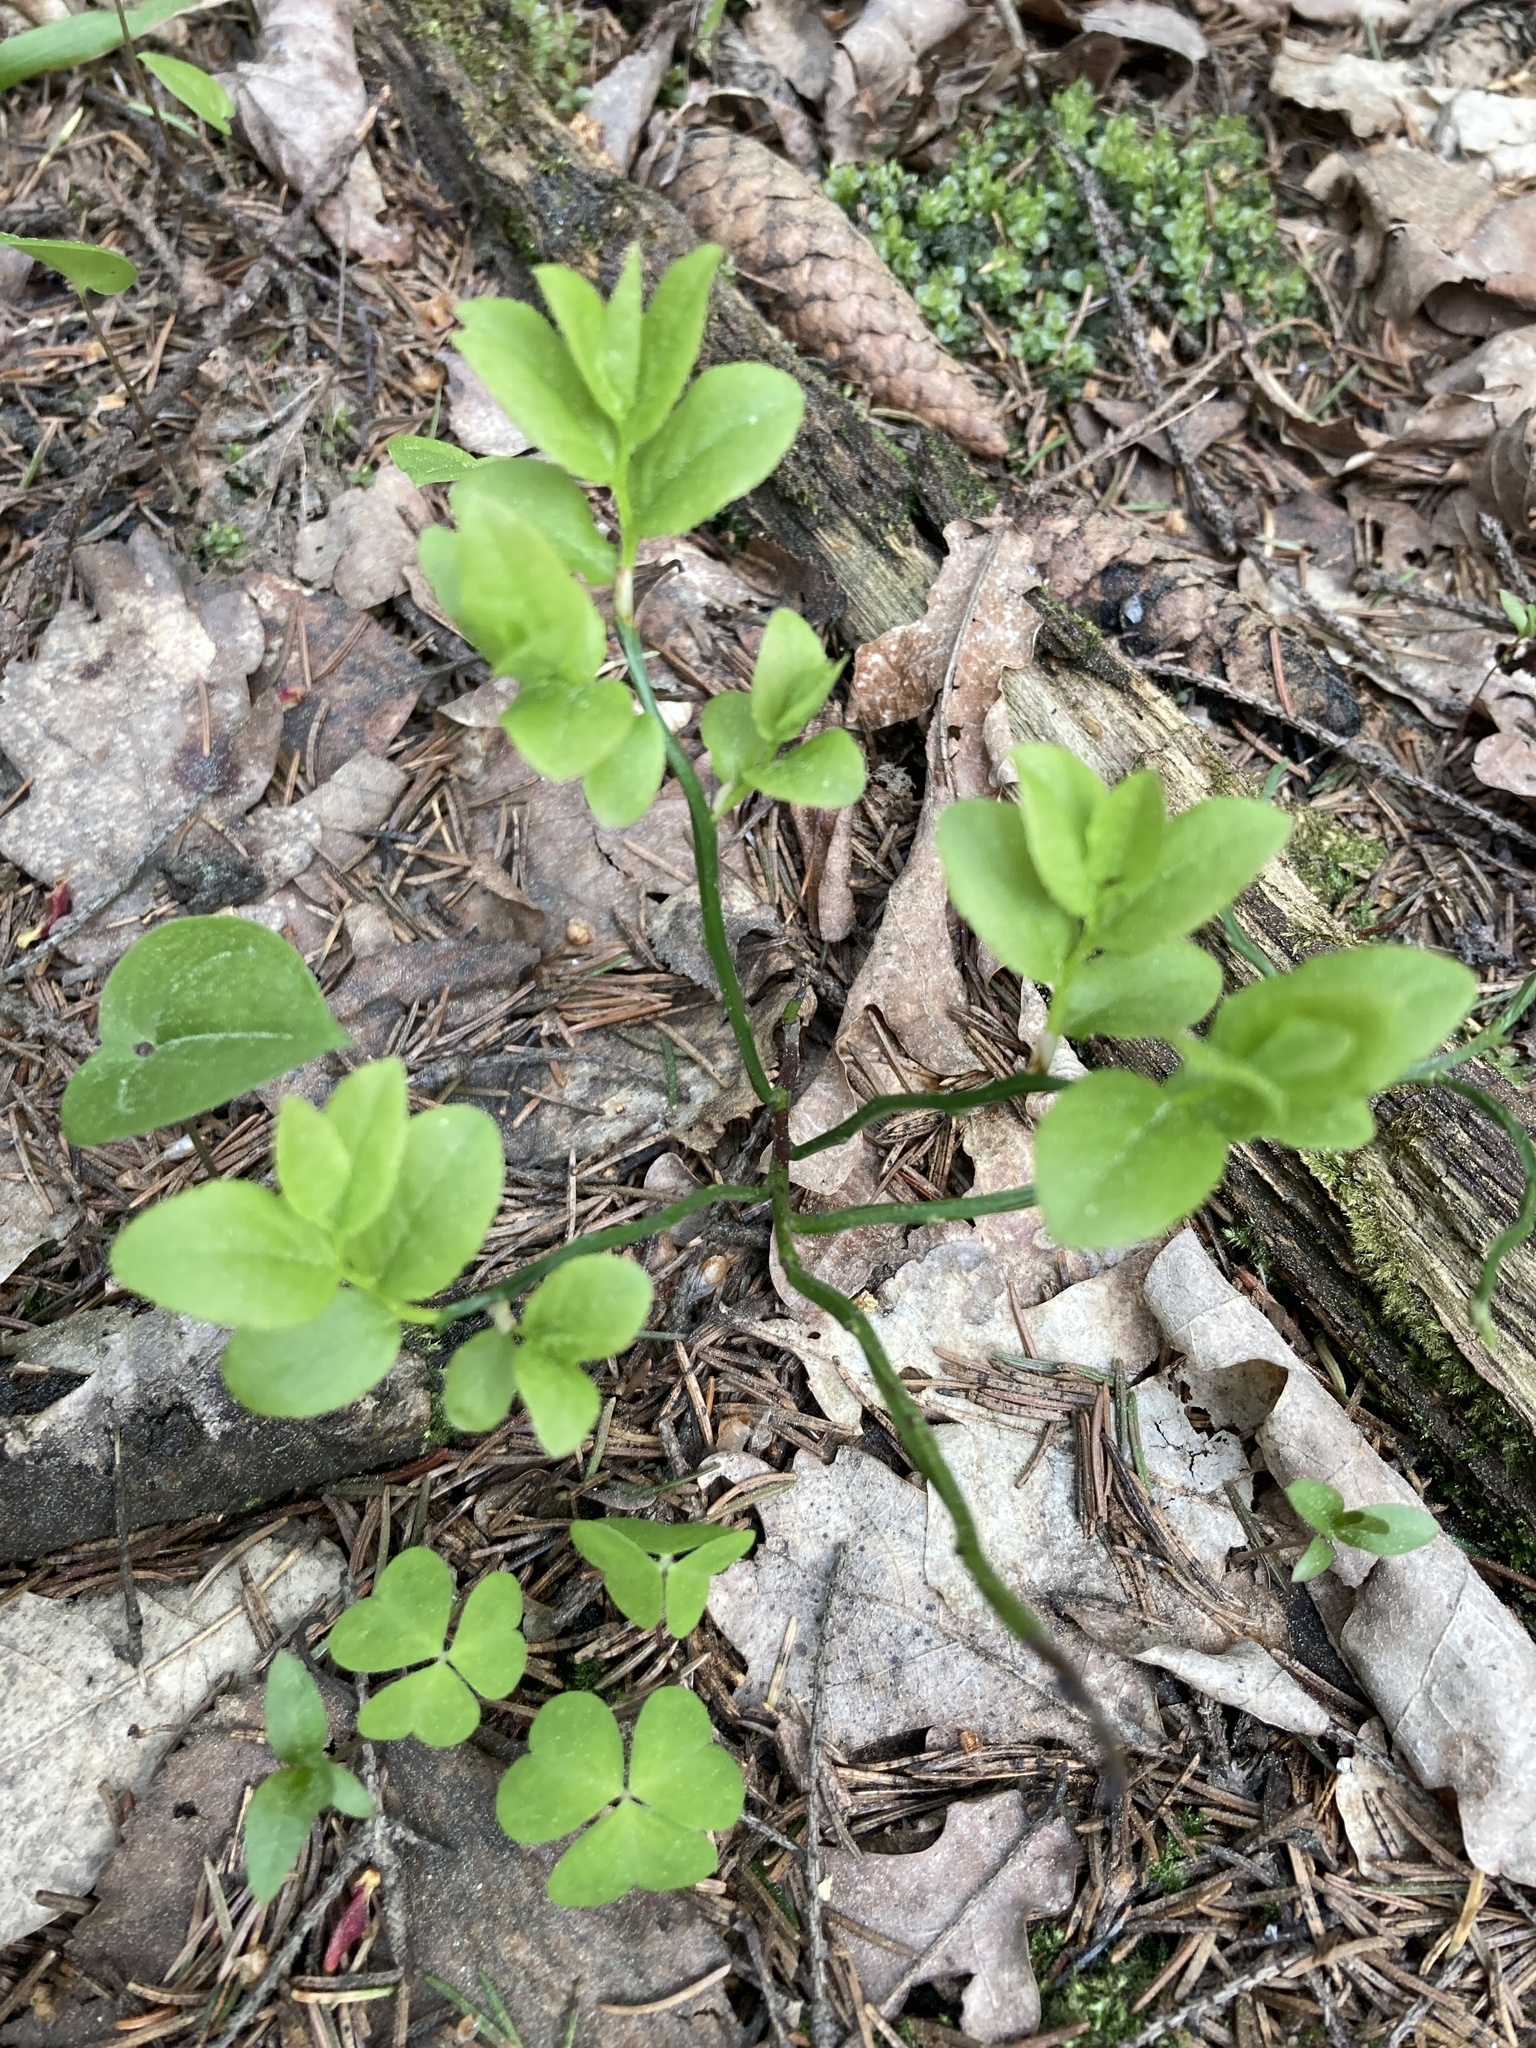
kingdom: Plantae
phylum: Tracheophyta
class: Magnoliopsida
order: Ericales
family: Ericaceae
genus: Vaccinium
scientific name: Vaccinium myrtillus
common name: Bilberry
